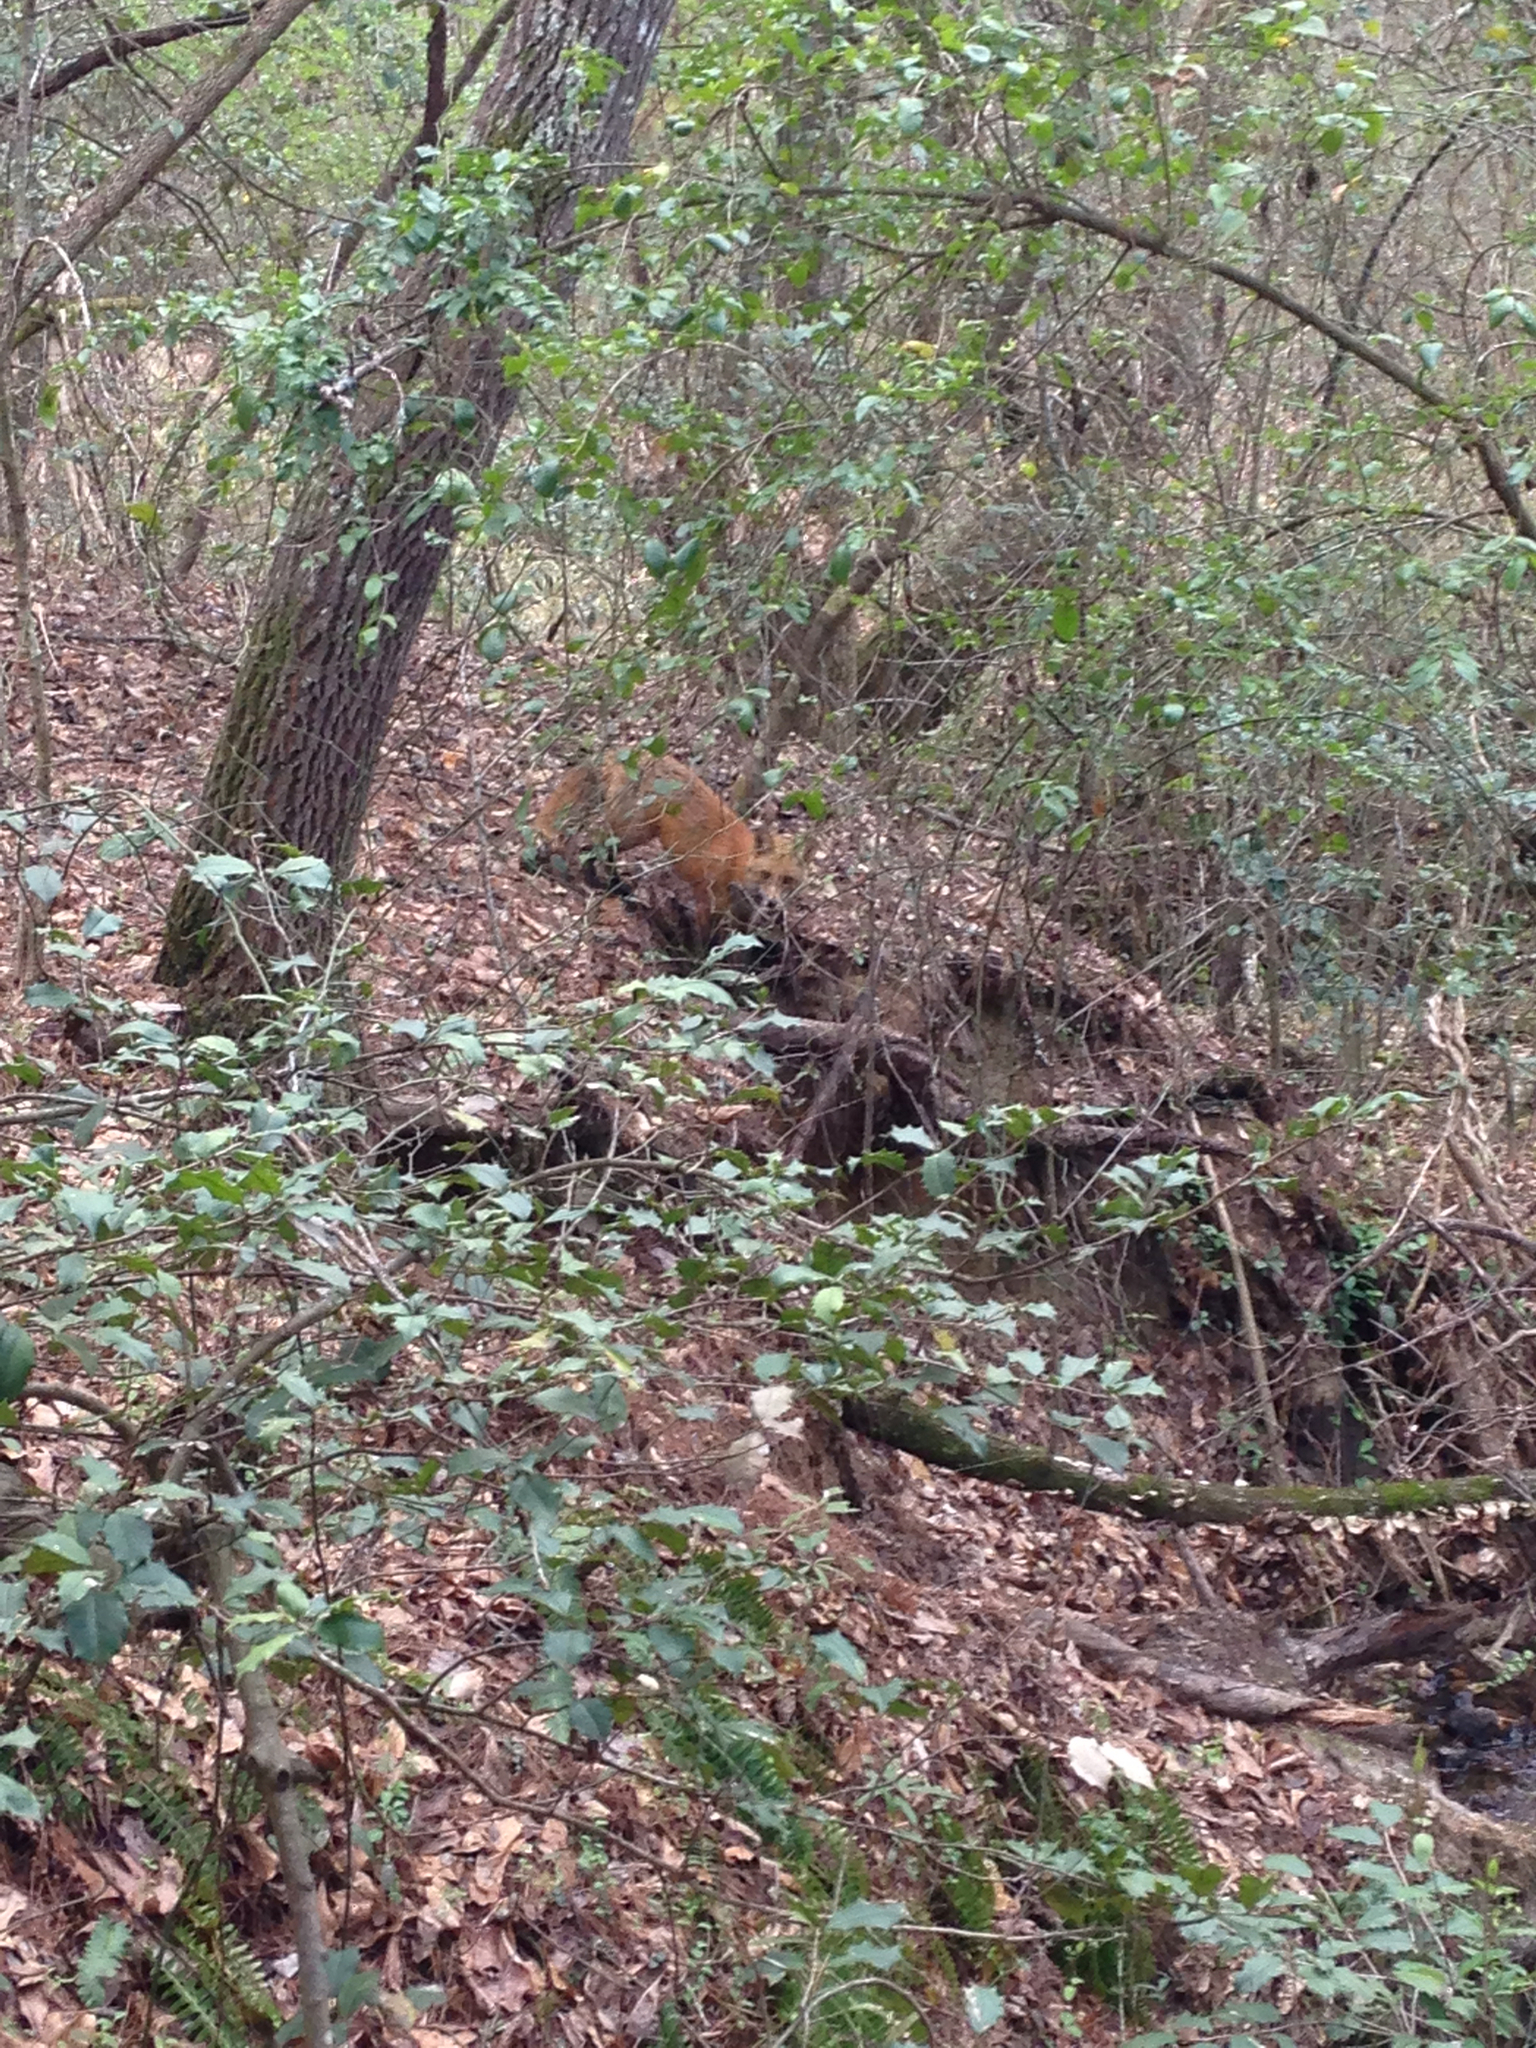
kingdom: Animalia
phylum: Chordata
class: Mammalia
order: Carnivora
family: Canidae
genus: Vulpes
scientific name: Vulpes vulpes
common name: Red fox
